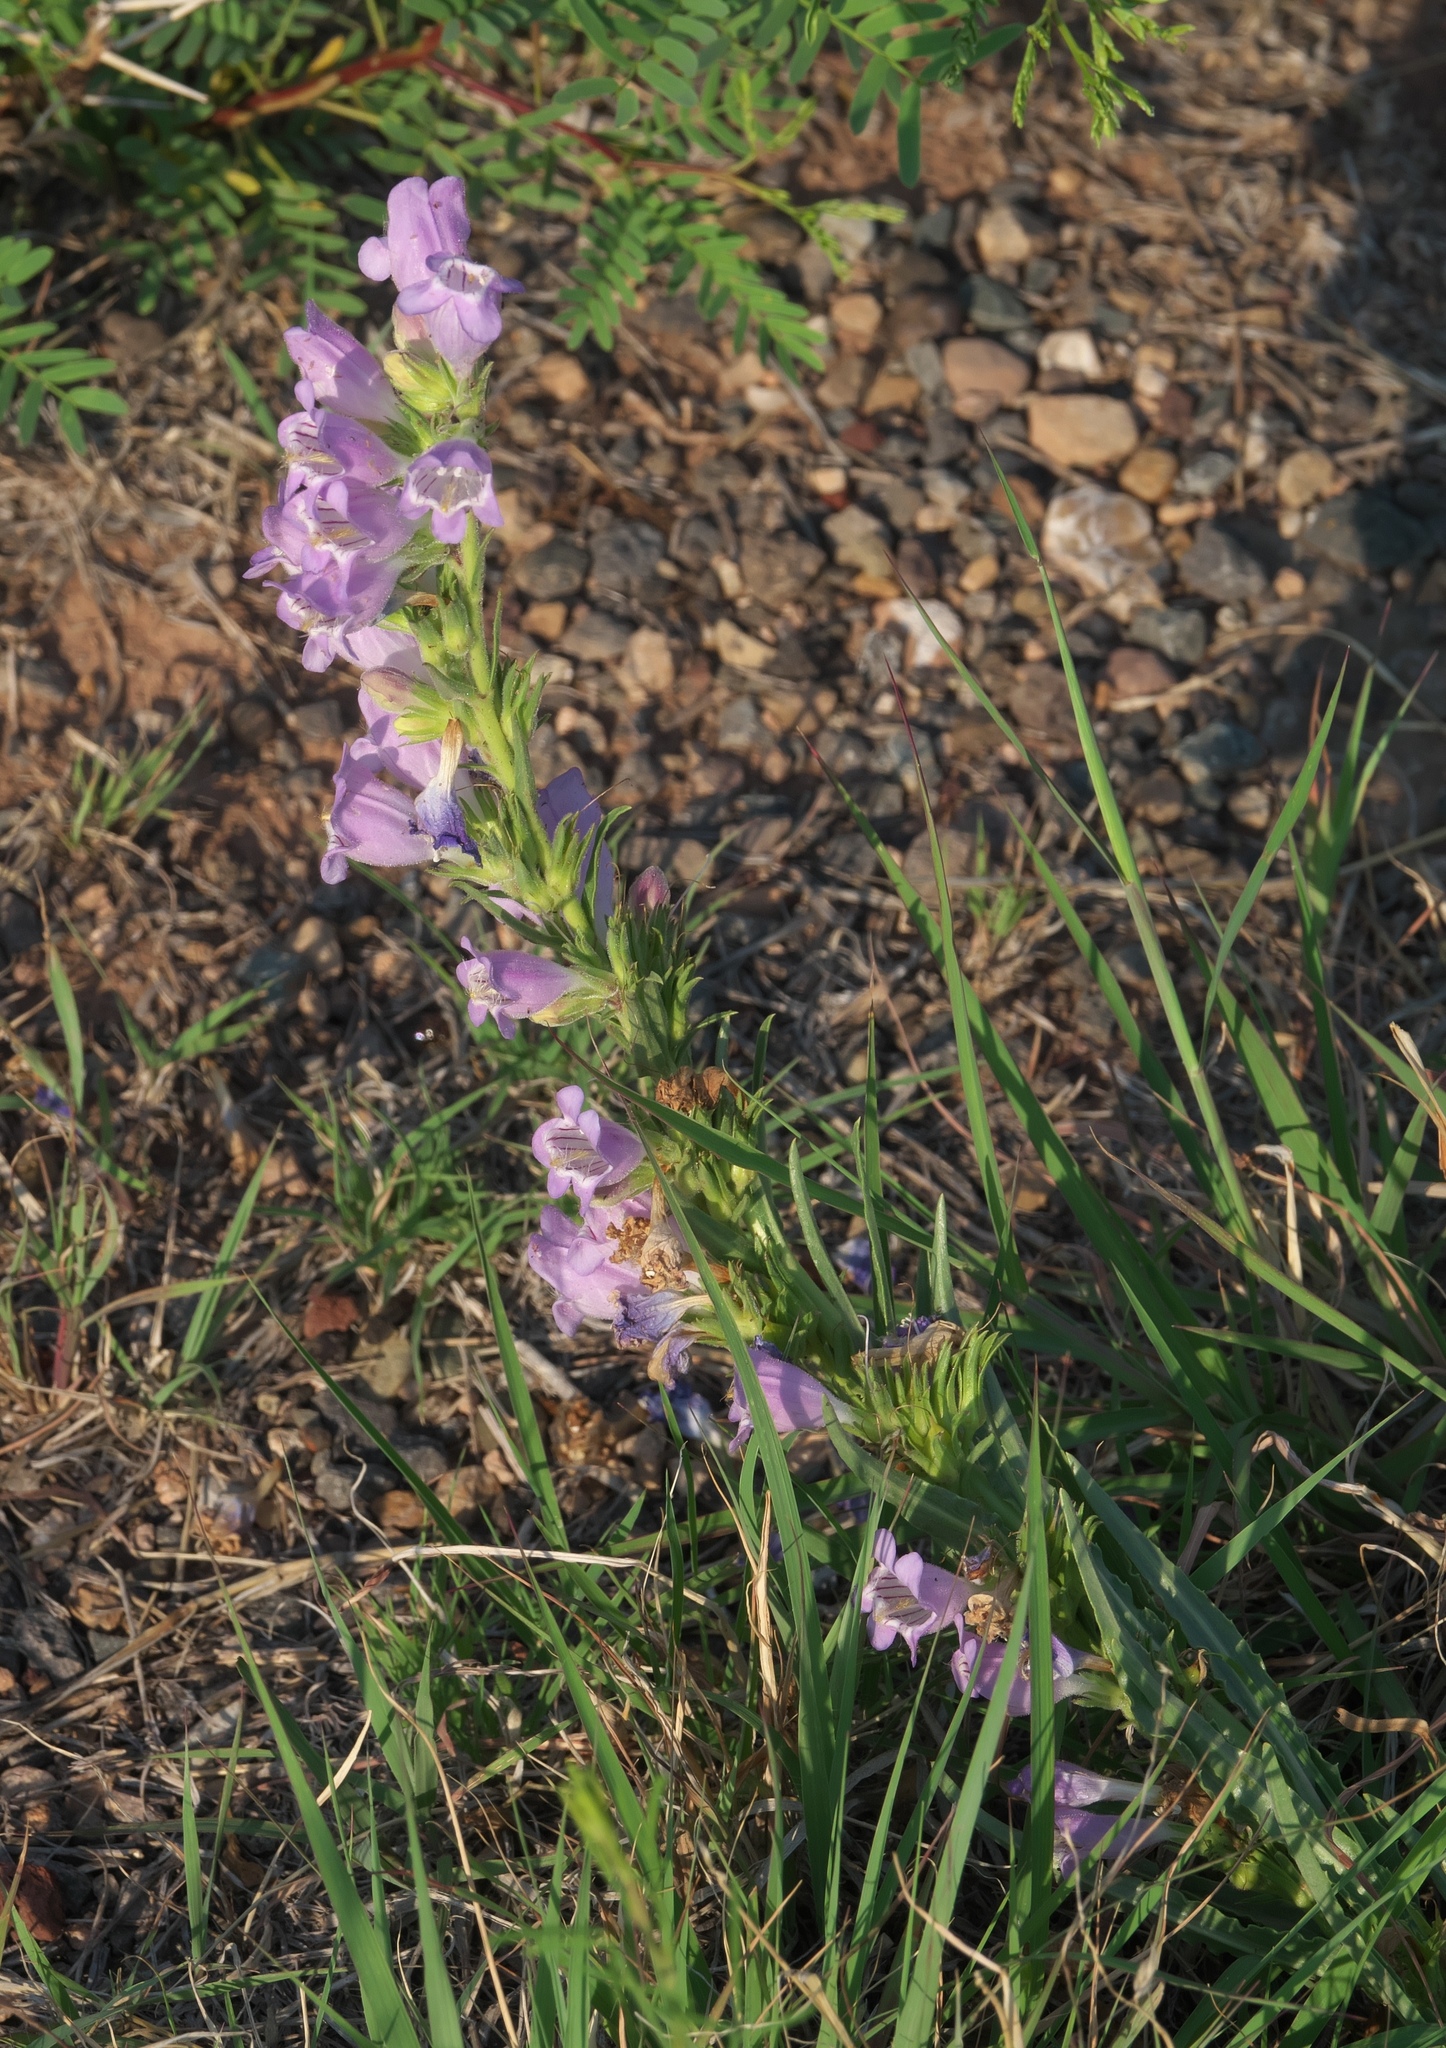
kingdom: Plantae
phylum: Tracheophyta
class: Magnoliopsida
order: Lamiales
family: Plantaginaceae
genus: Penstemon
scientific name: Penstemon jamesii
